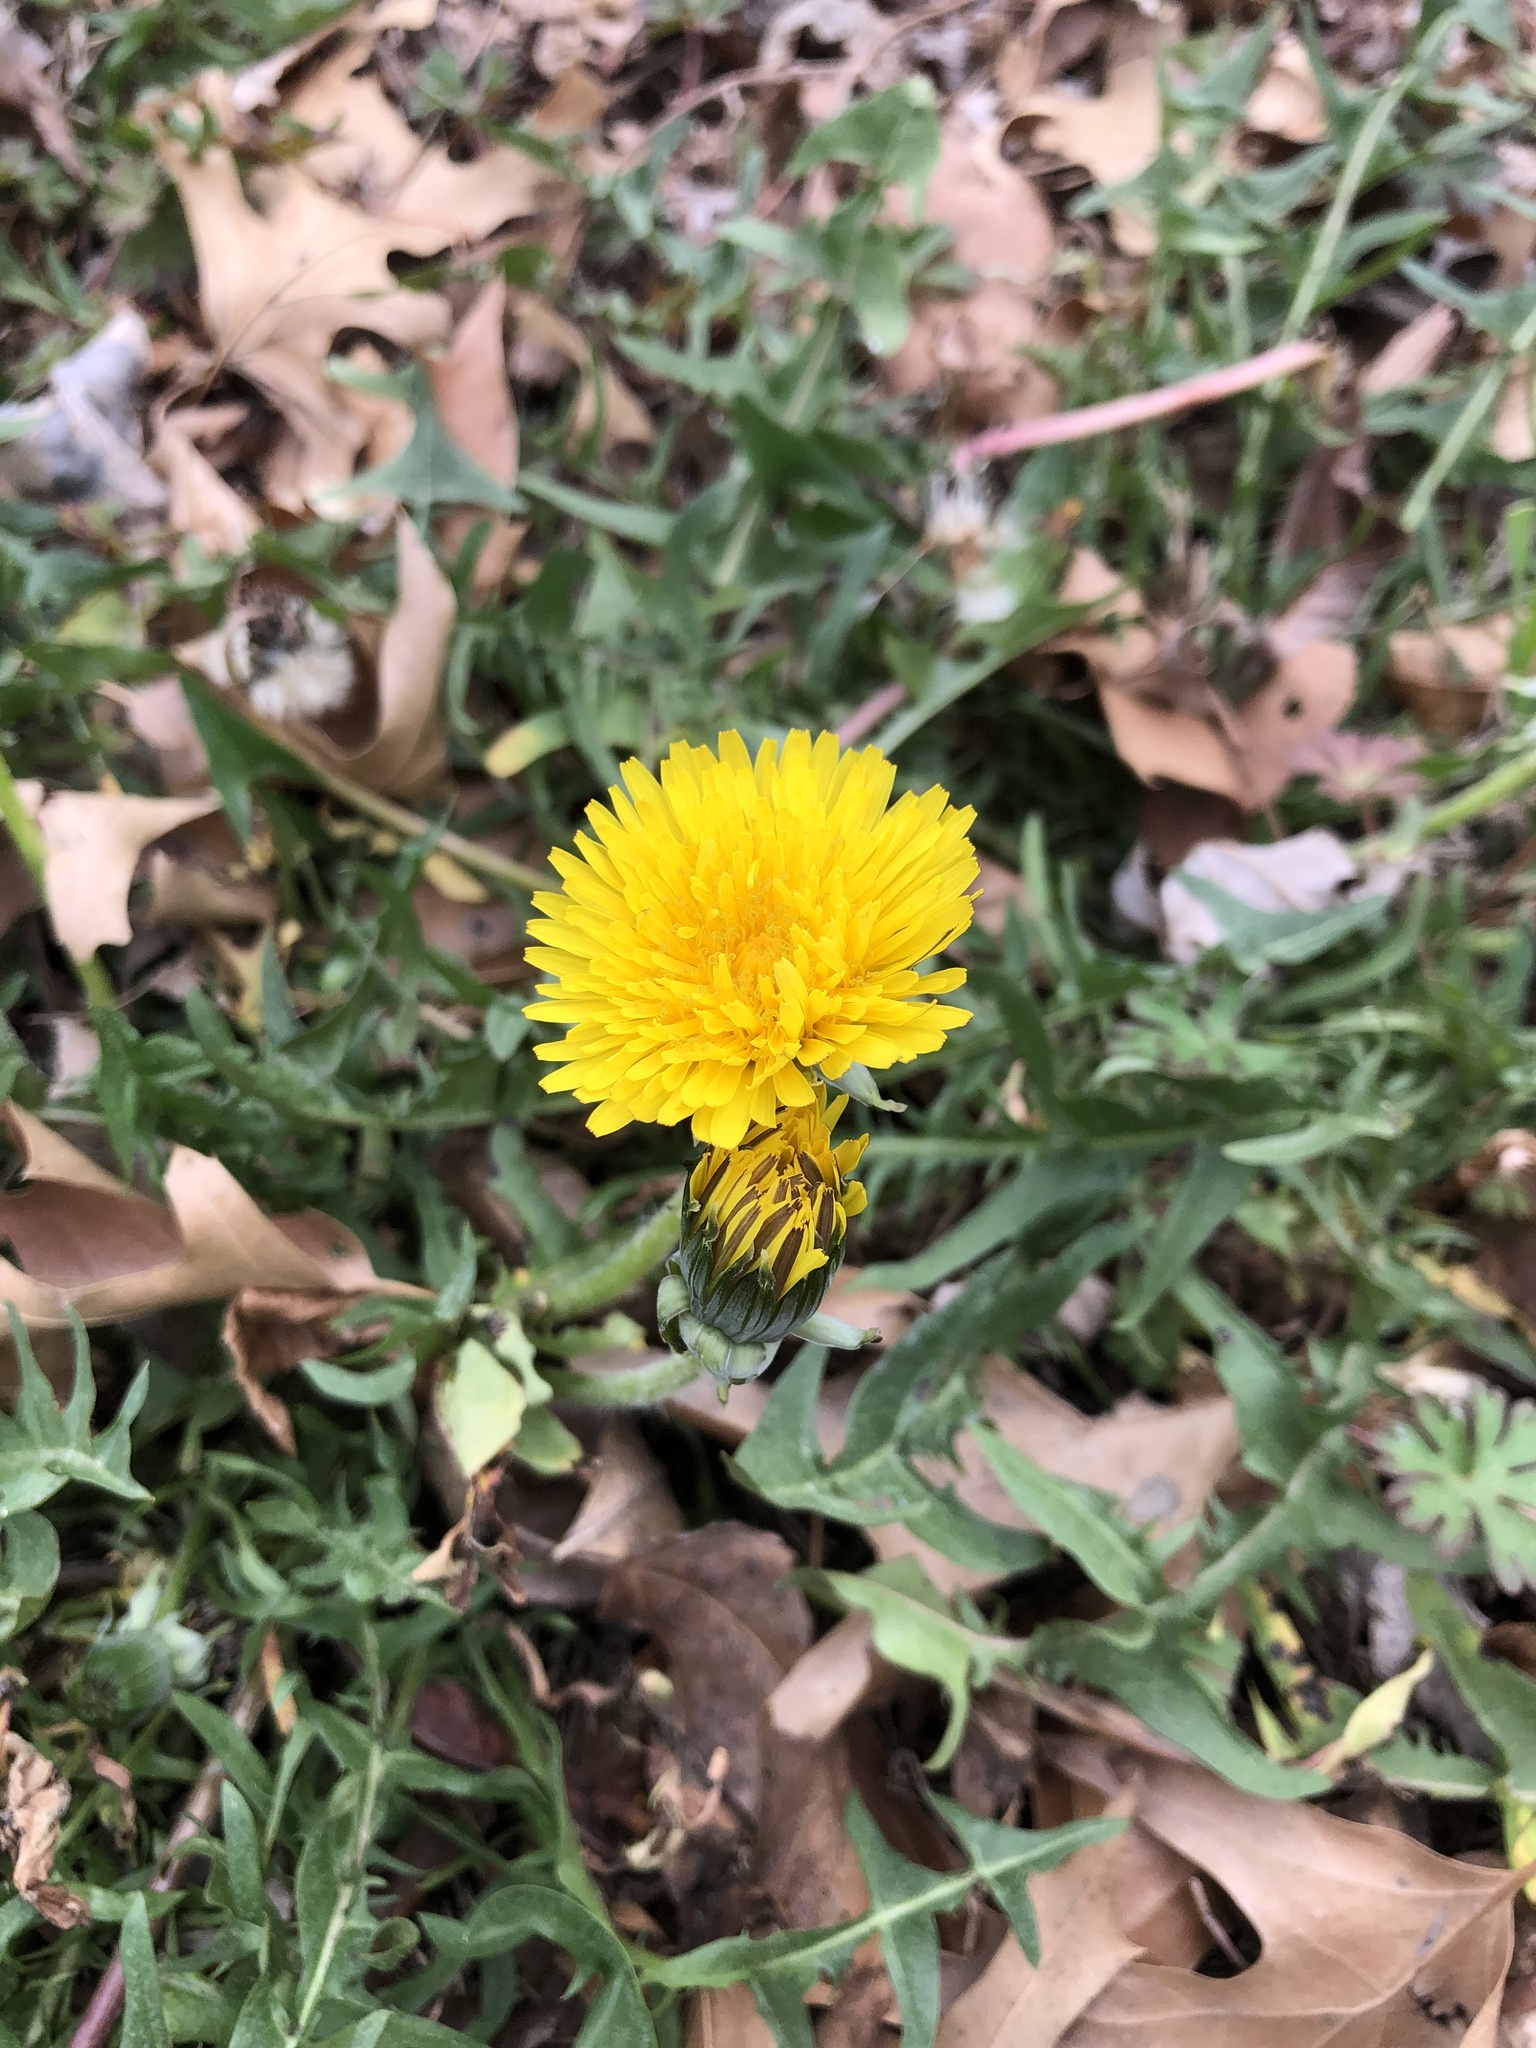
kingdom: Plantae
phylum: Tracheophyta
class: Magnoliopsida
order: Asterales
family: Asteraceae
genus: Taraxacum
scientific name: Taraxacum
